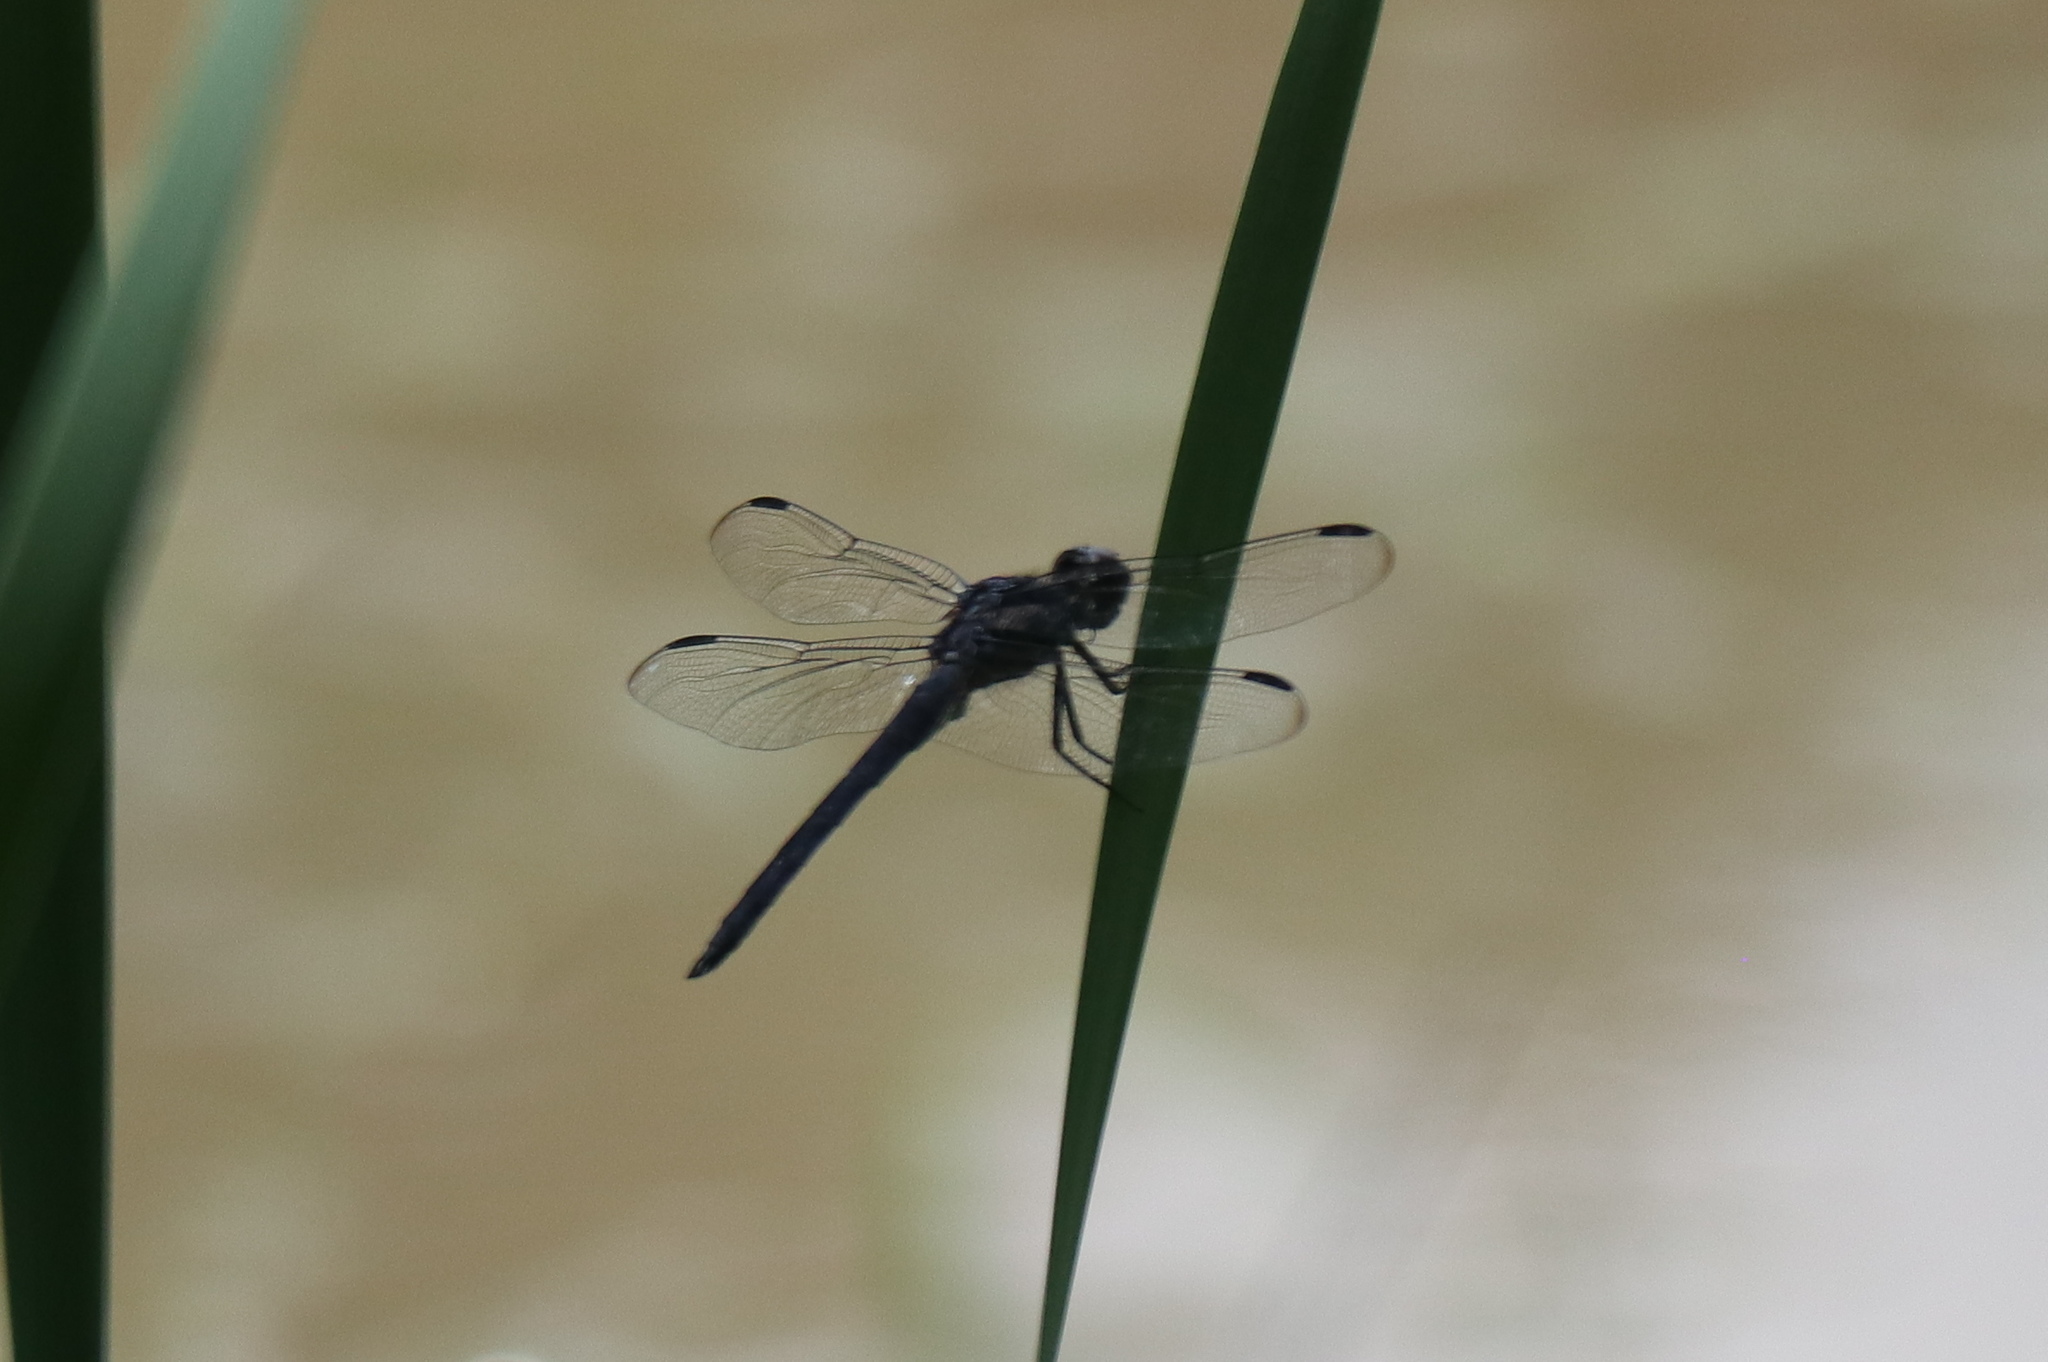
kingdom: Animalia
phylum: Arthropoda
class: Insecta
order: Odonata
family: Libellulidae
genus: Libellula
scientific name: Libellula incesta
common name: Slaty skimmer
